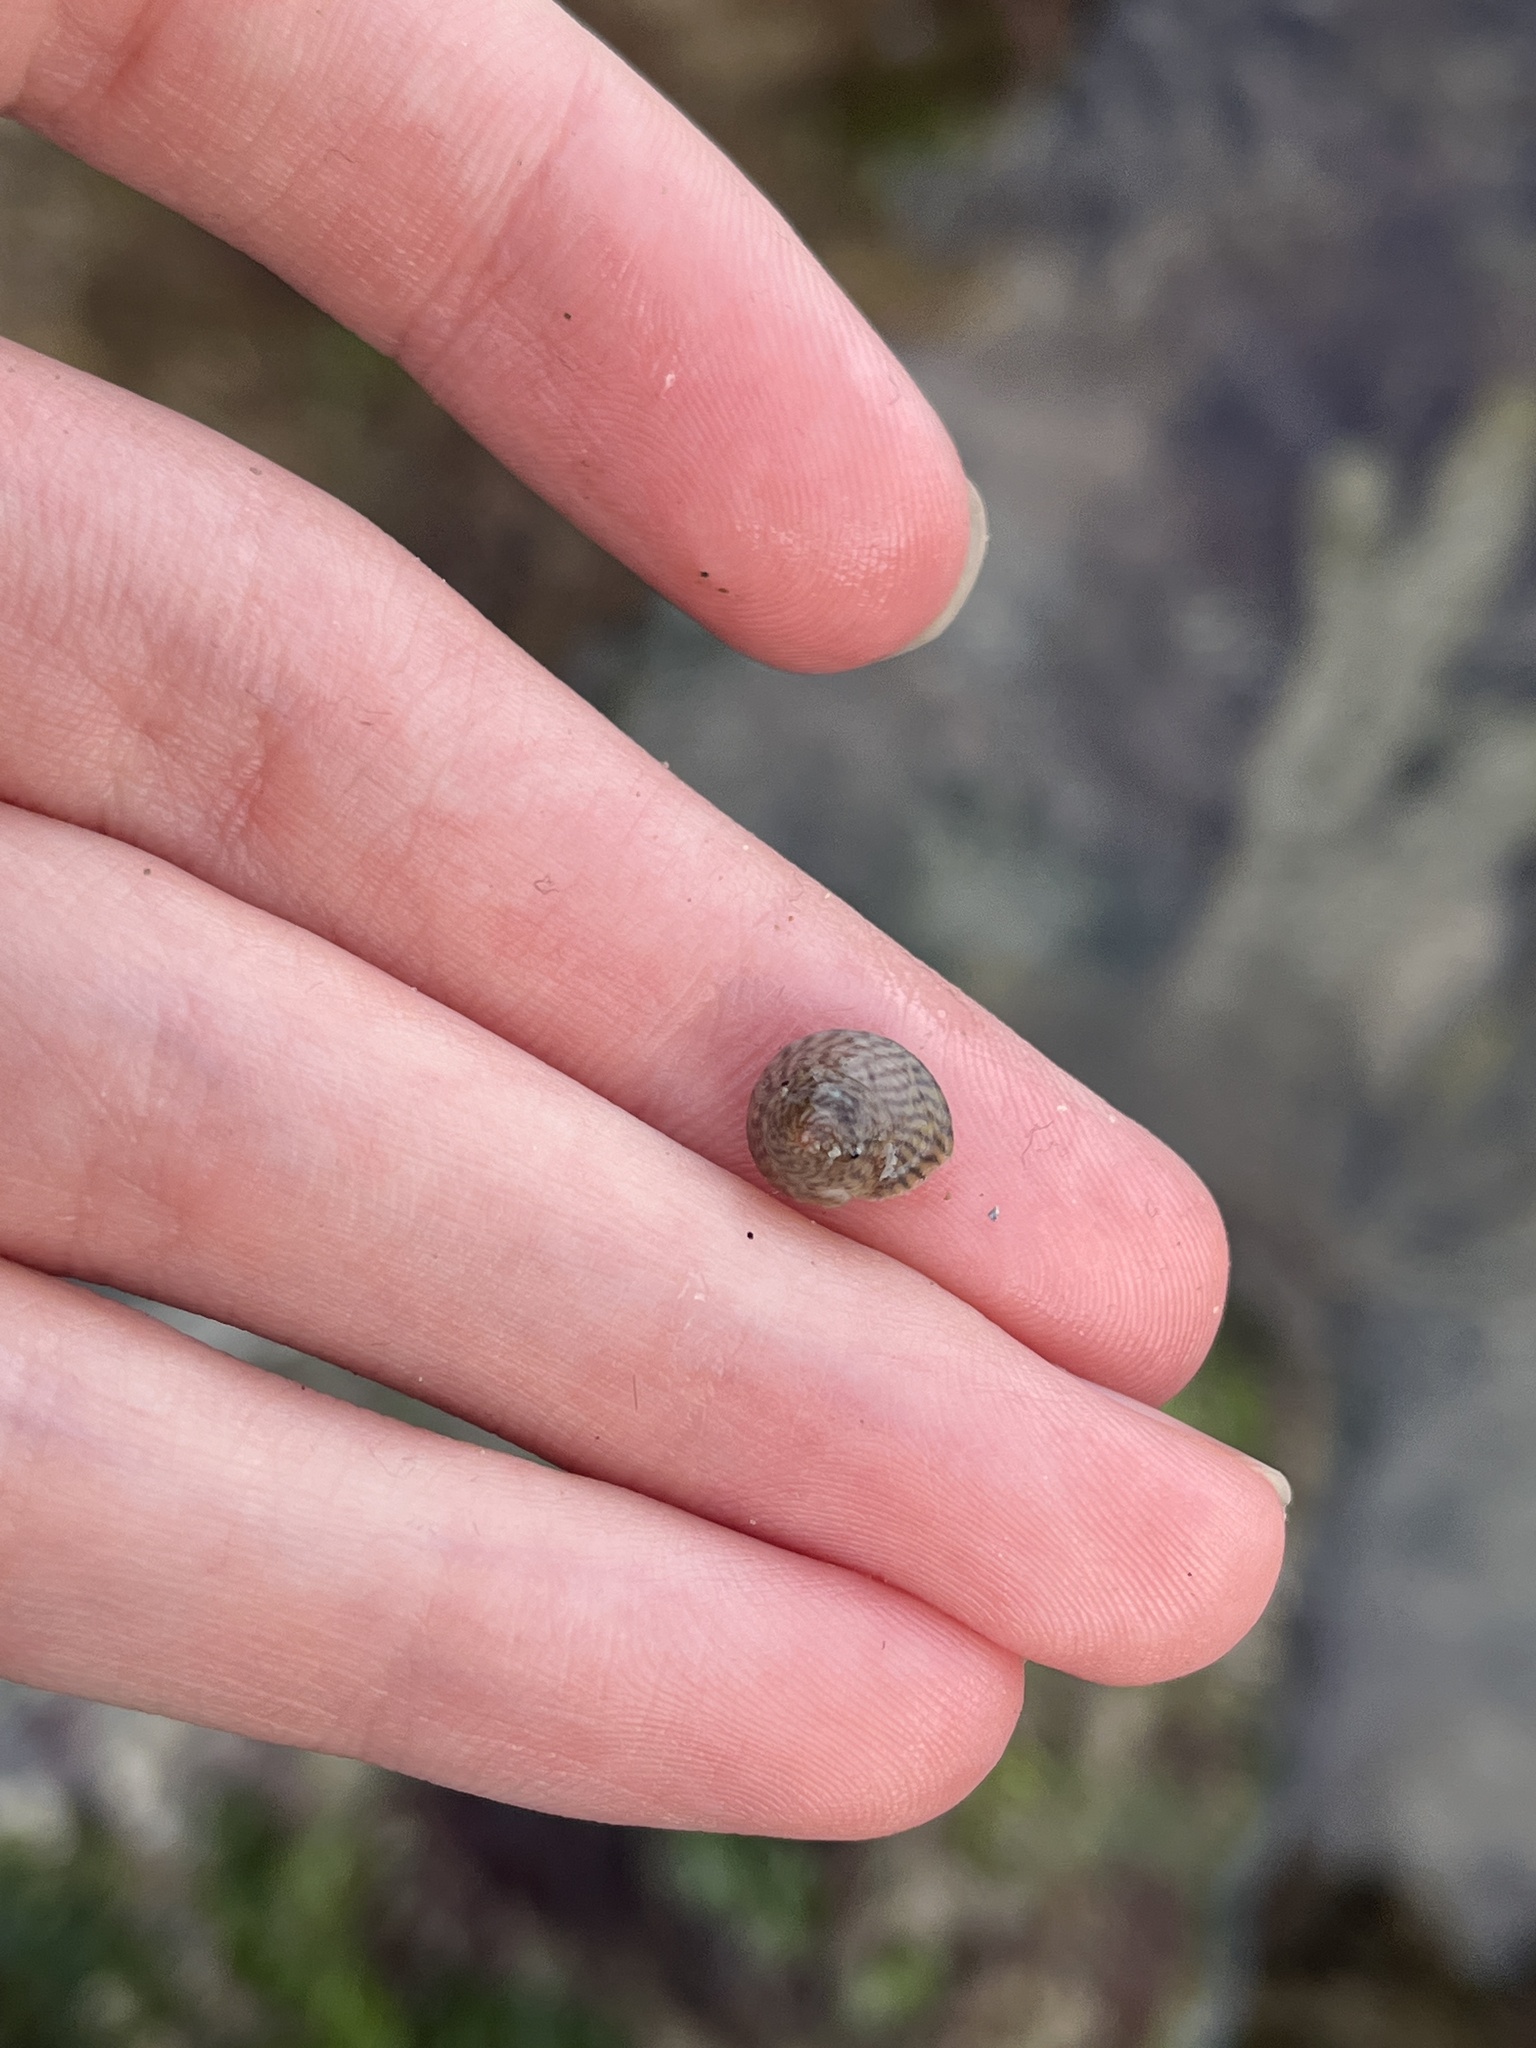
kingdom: Animalia
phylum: Mollusca
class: Gastropoda
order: Trochida
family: Trochidae
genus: Steromphala
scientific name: Steromphala cineraria
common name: Grey top shell
